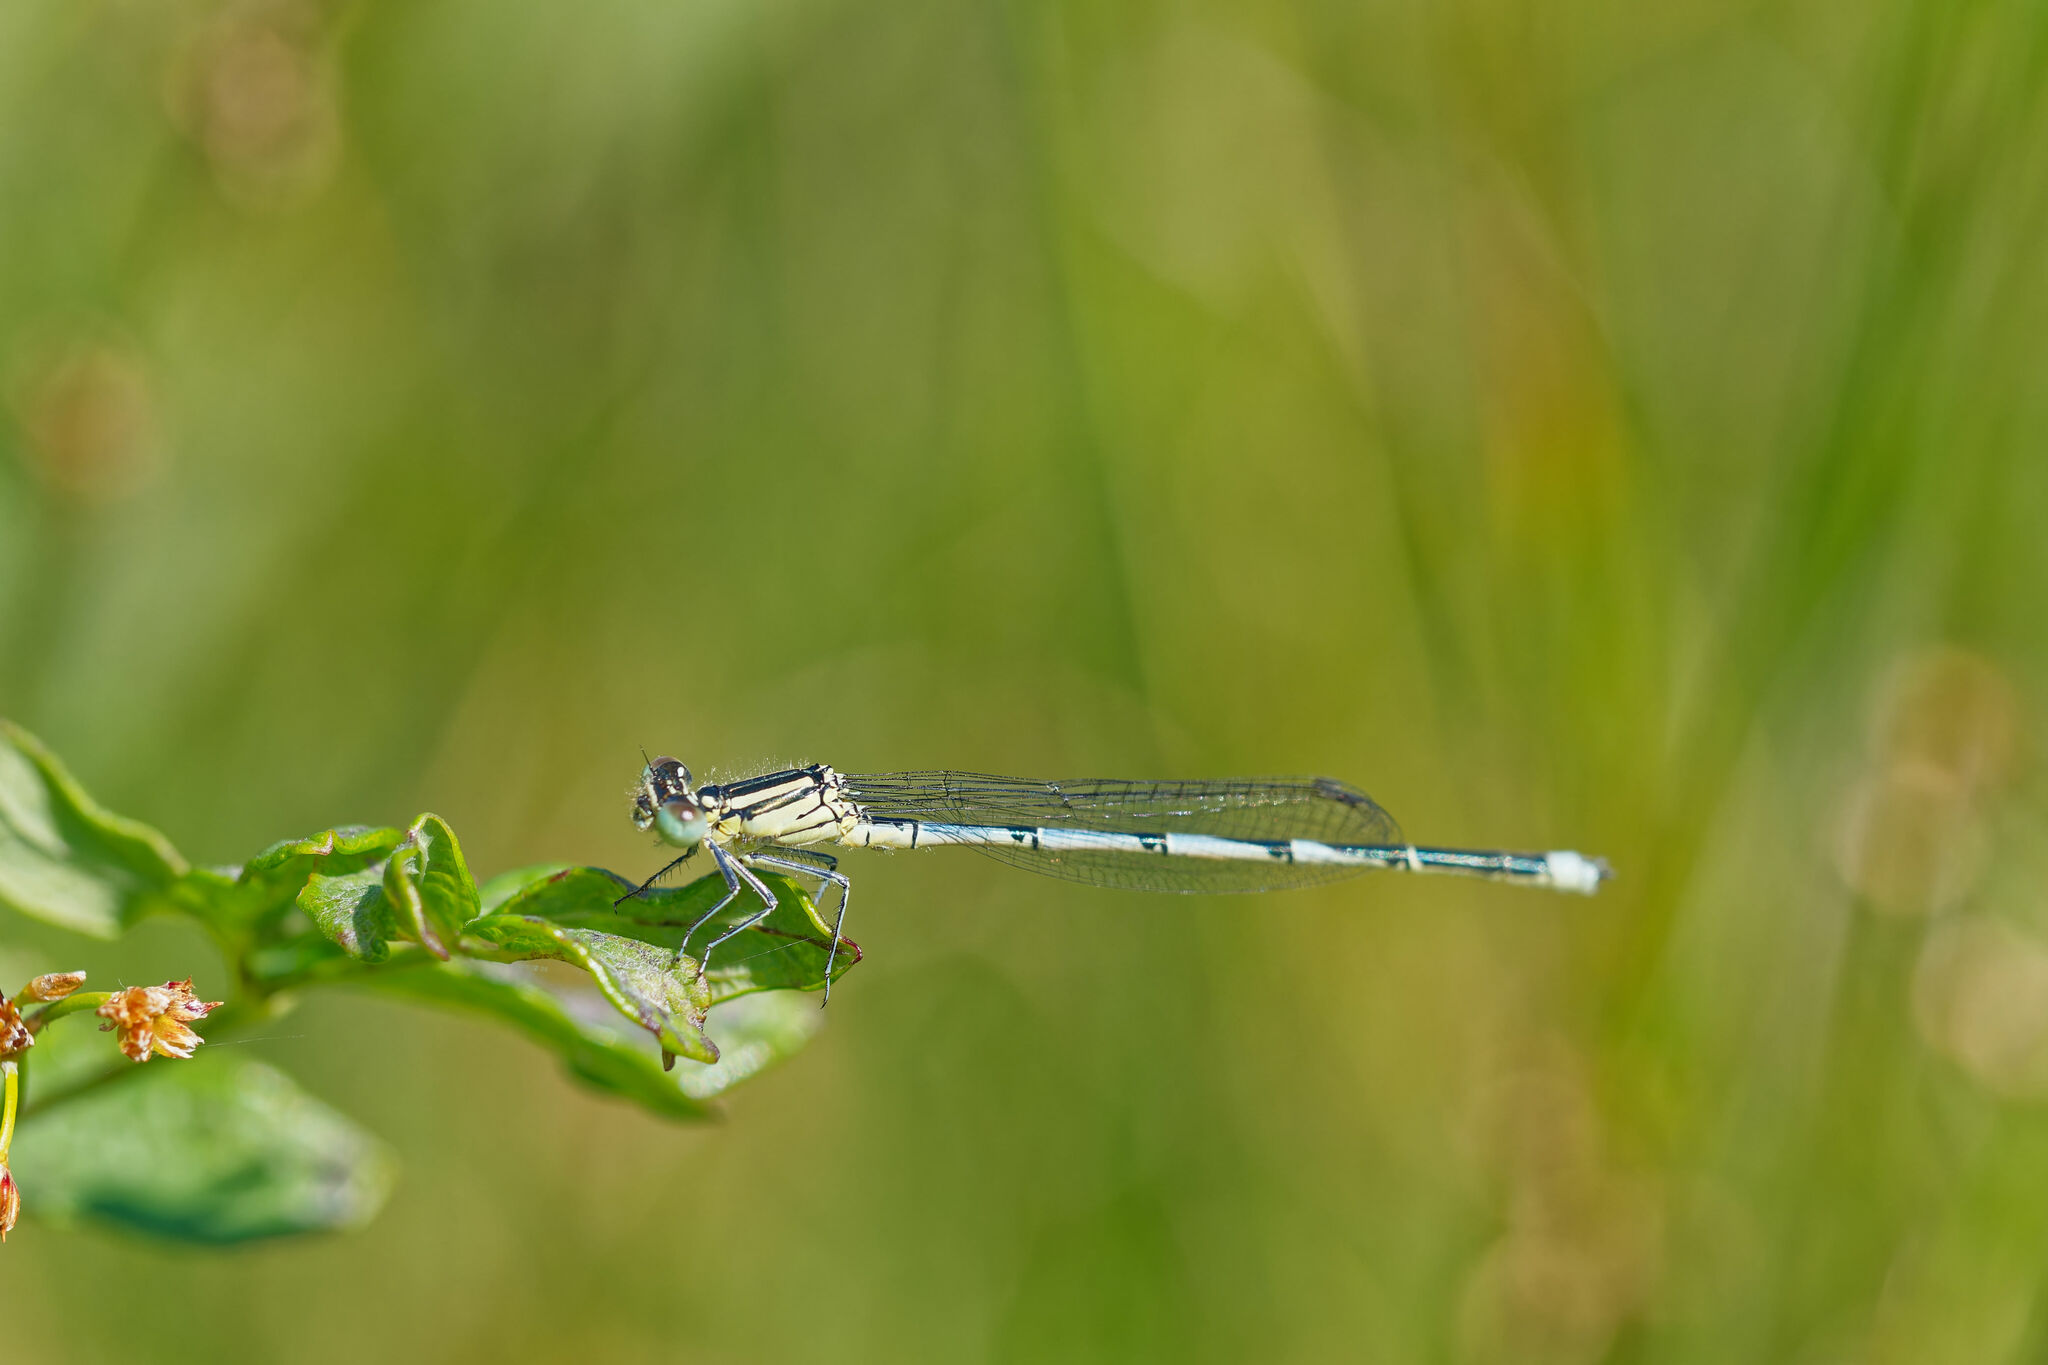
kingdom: Animalia
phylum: Arthropoda
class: Insecta
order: Odonata
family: Coenagrionidae
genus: Erythromma
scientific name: Erythromma lindenii
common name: Blue-eye
